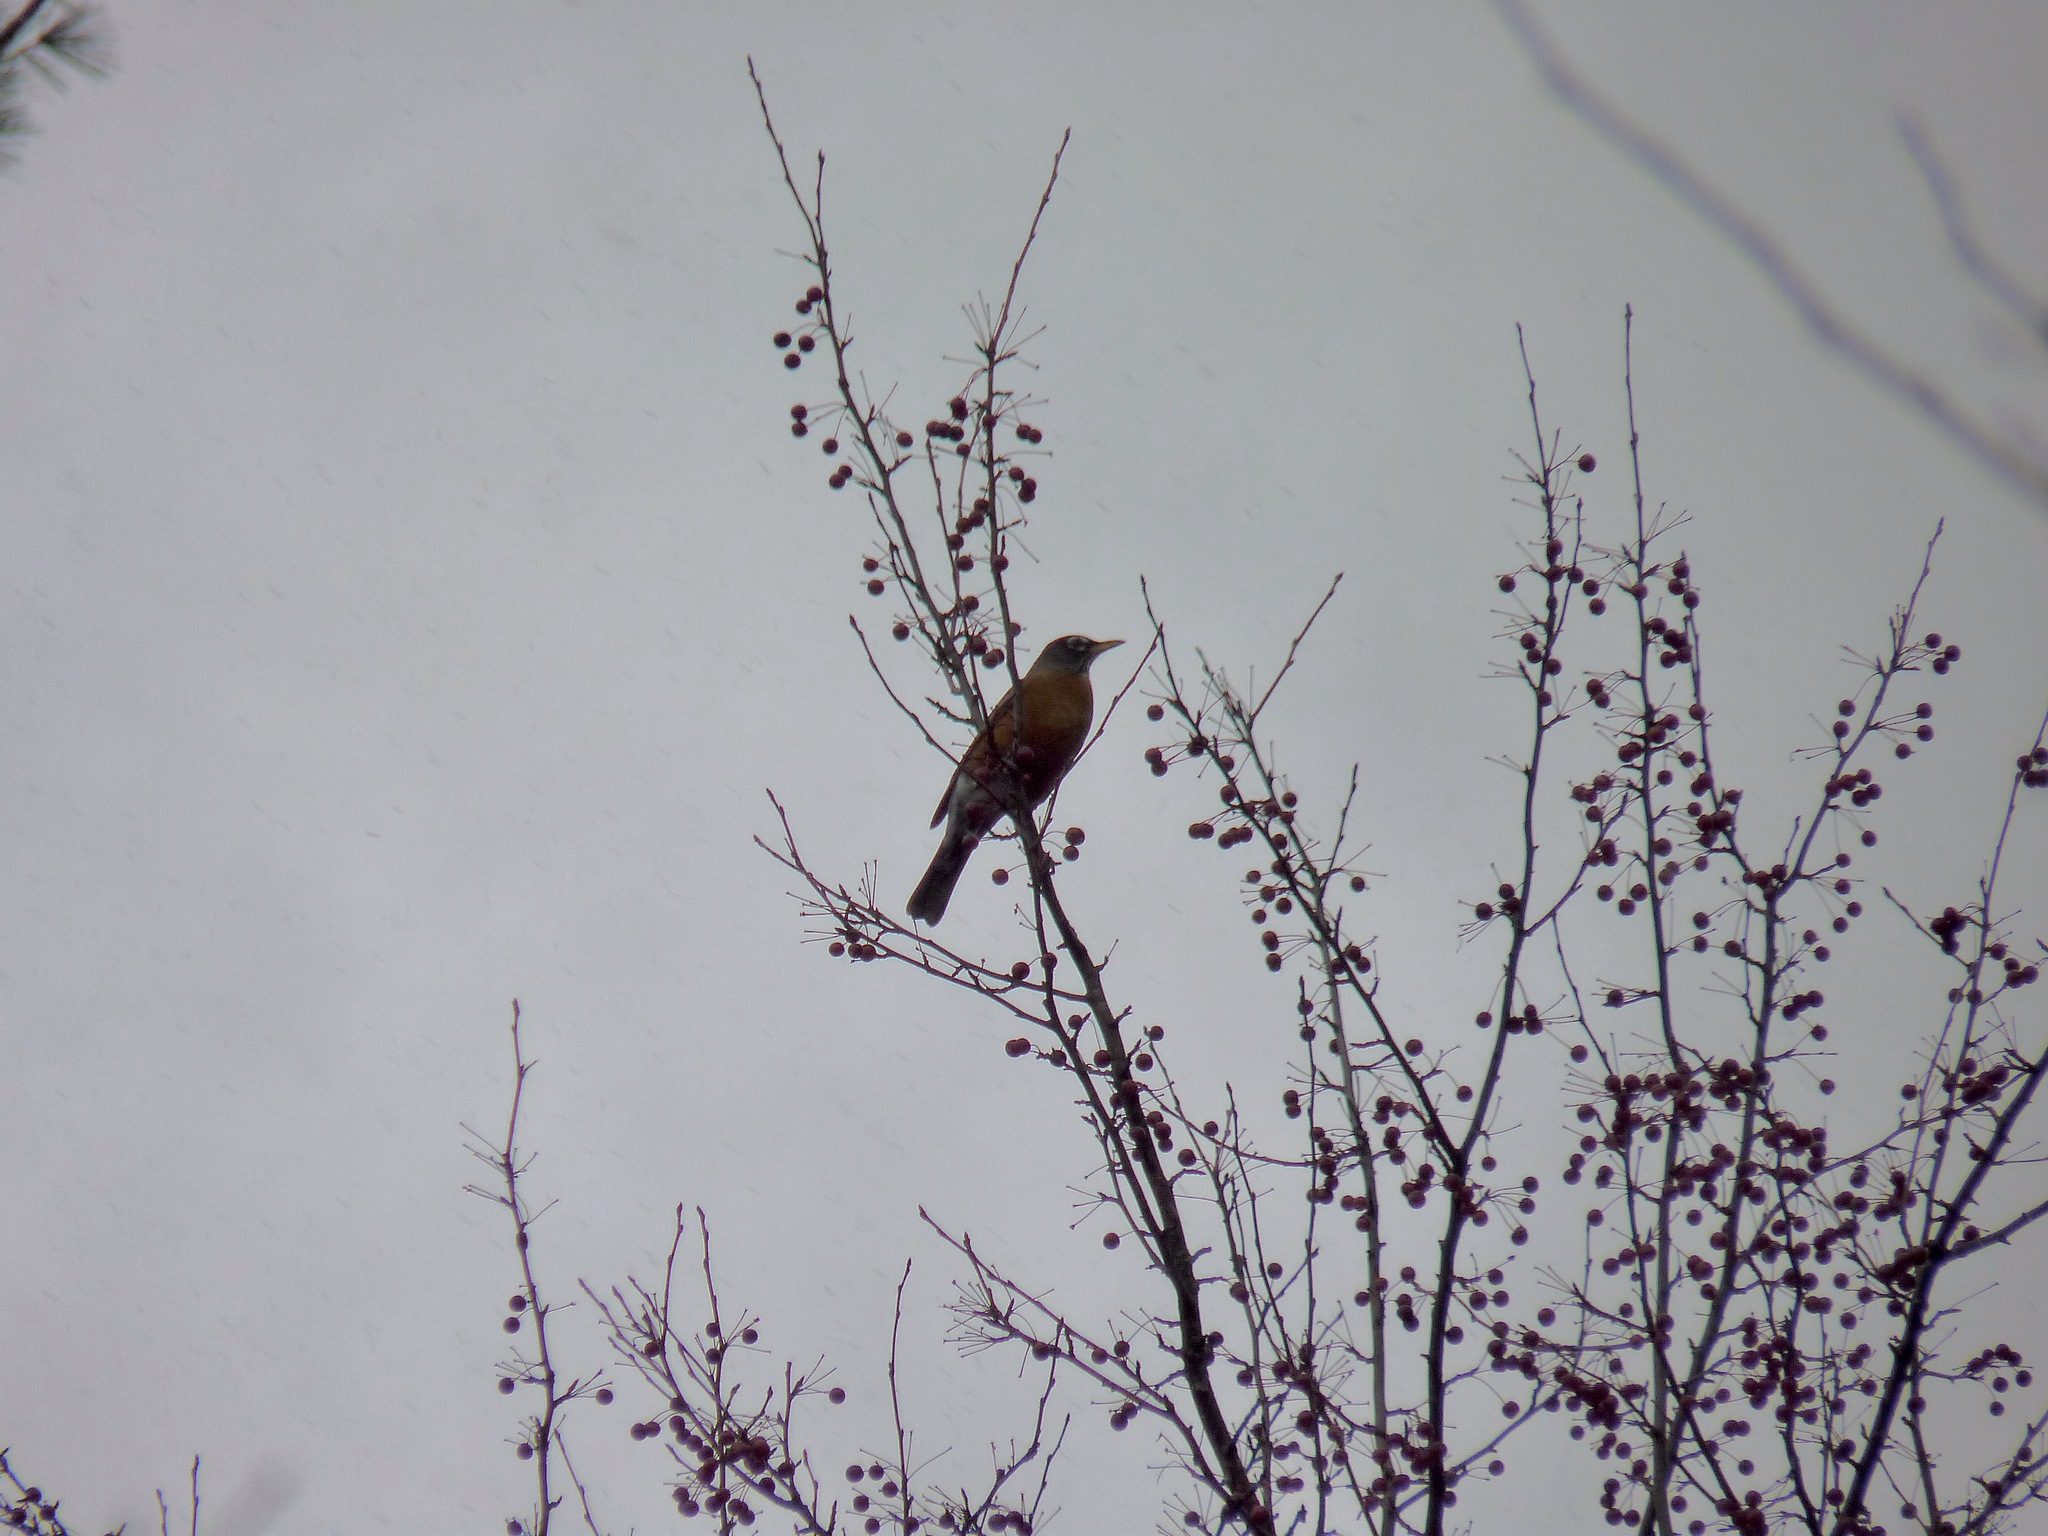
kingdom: Animalia
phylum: Chordata
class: Aves
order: Passeriformes
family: Turdidae
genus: Turdus
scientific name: Turdus migratorius
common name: American robin
